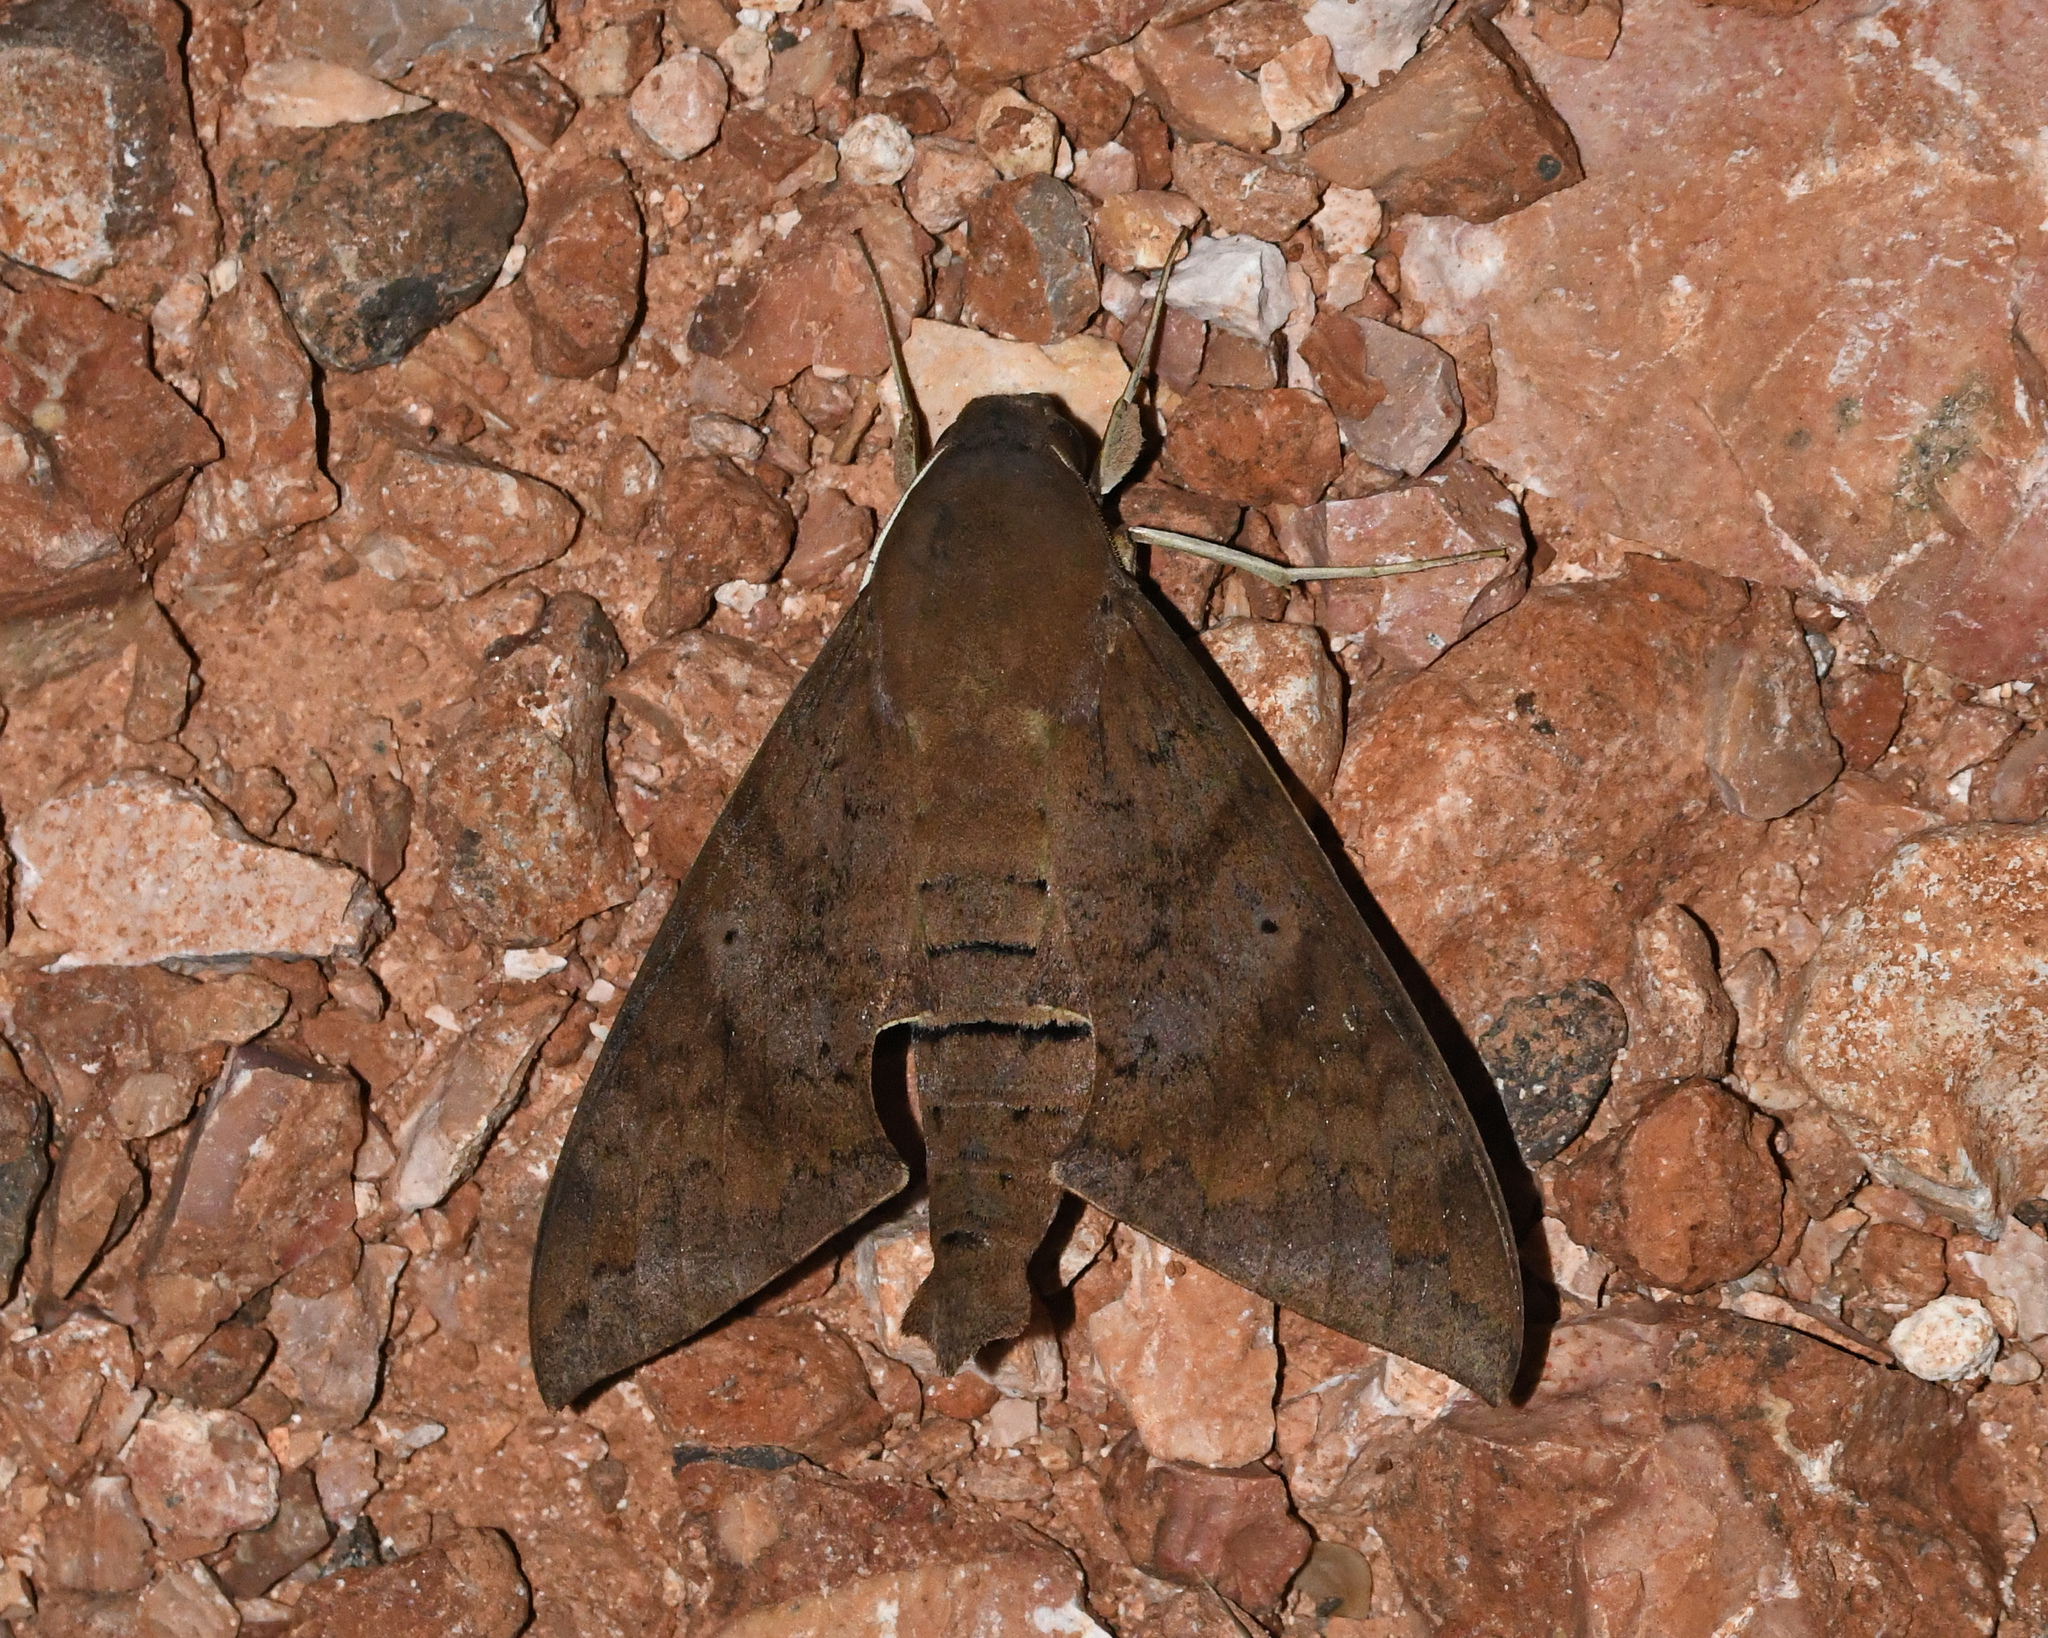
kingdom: Animalia
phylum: Arthropoda
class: Insecta
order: Lepidoptera
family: Sphingidae
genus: Pachylioides
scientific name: Pachylioides resumens
